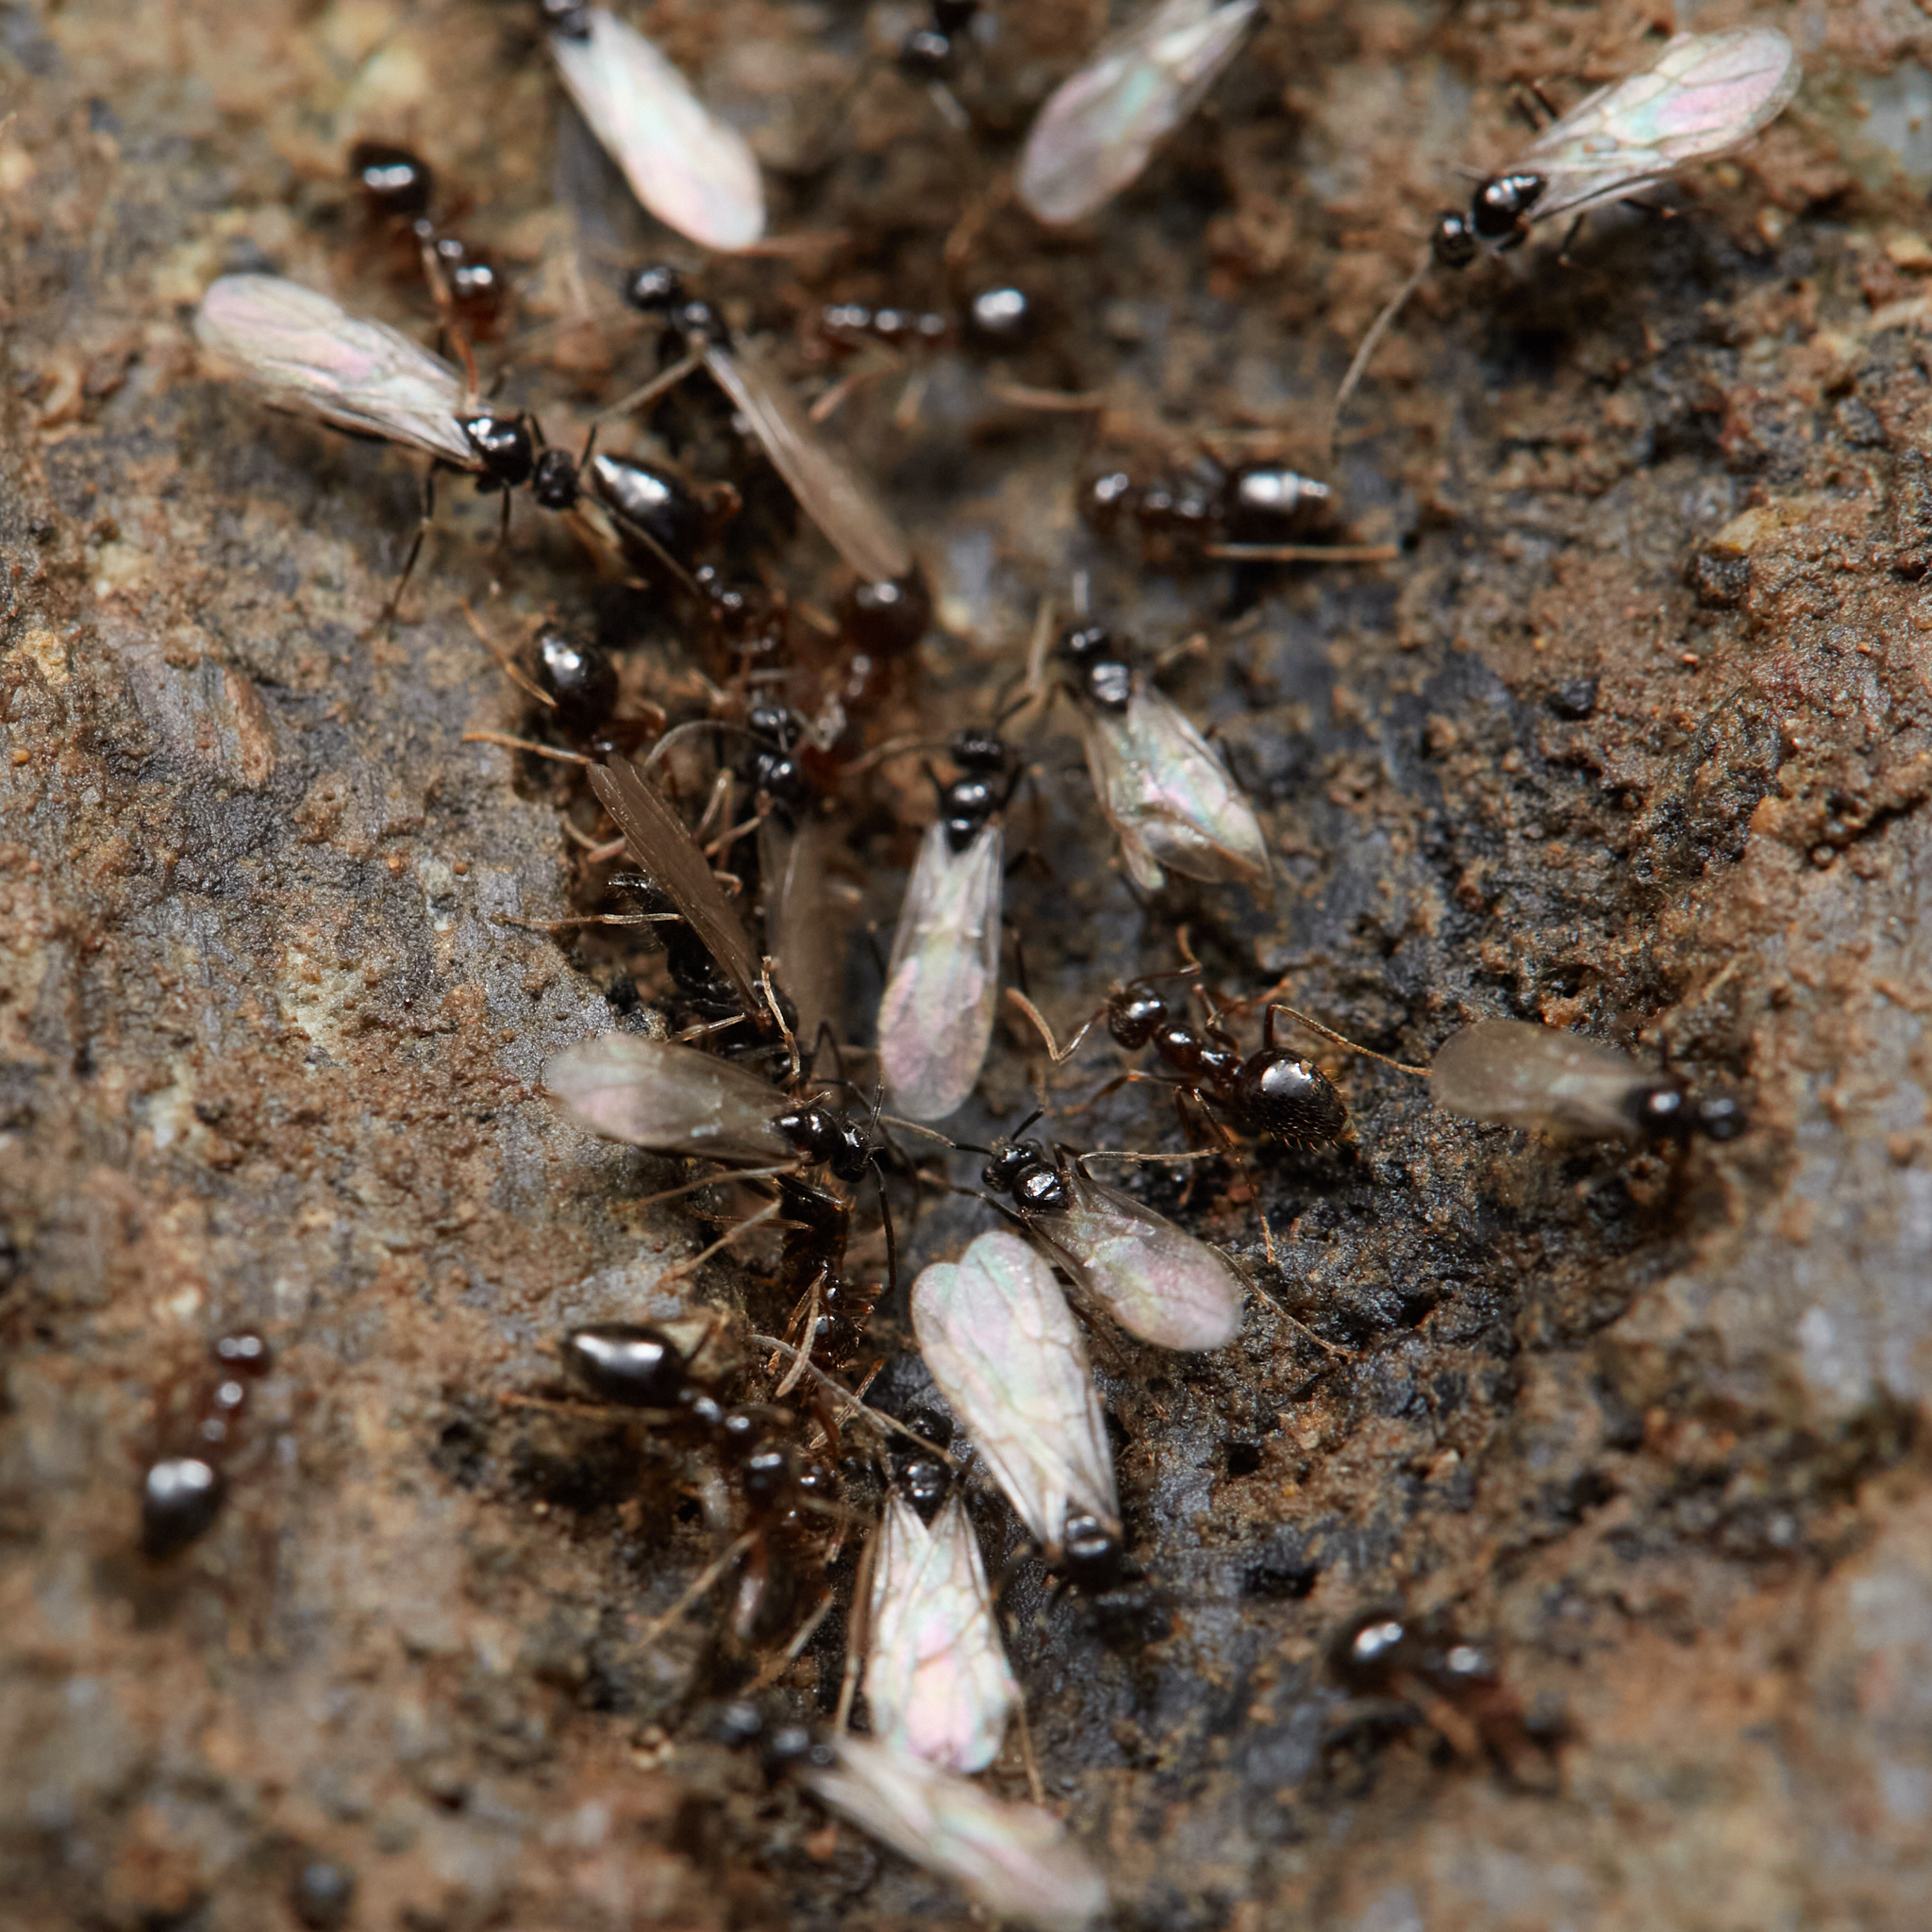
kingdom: Animalia
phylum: Arthropoda
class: Insecta
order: Hymenoptera
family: Formicidae
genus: Prenolepis
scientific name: Prenolepis imparis
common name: Small honey ant
